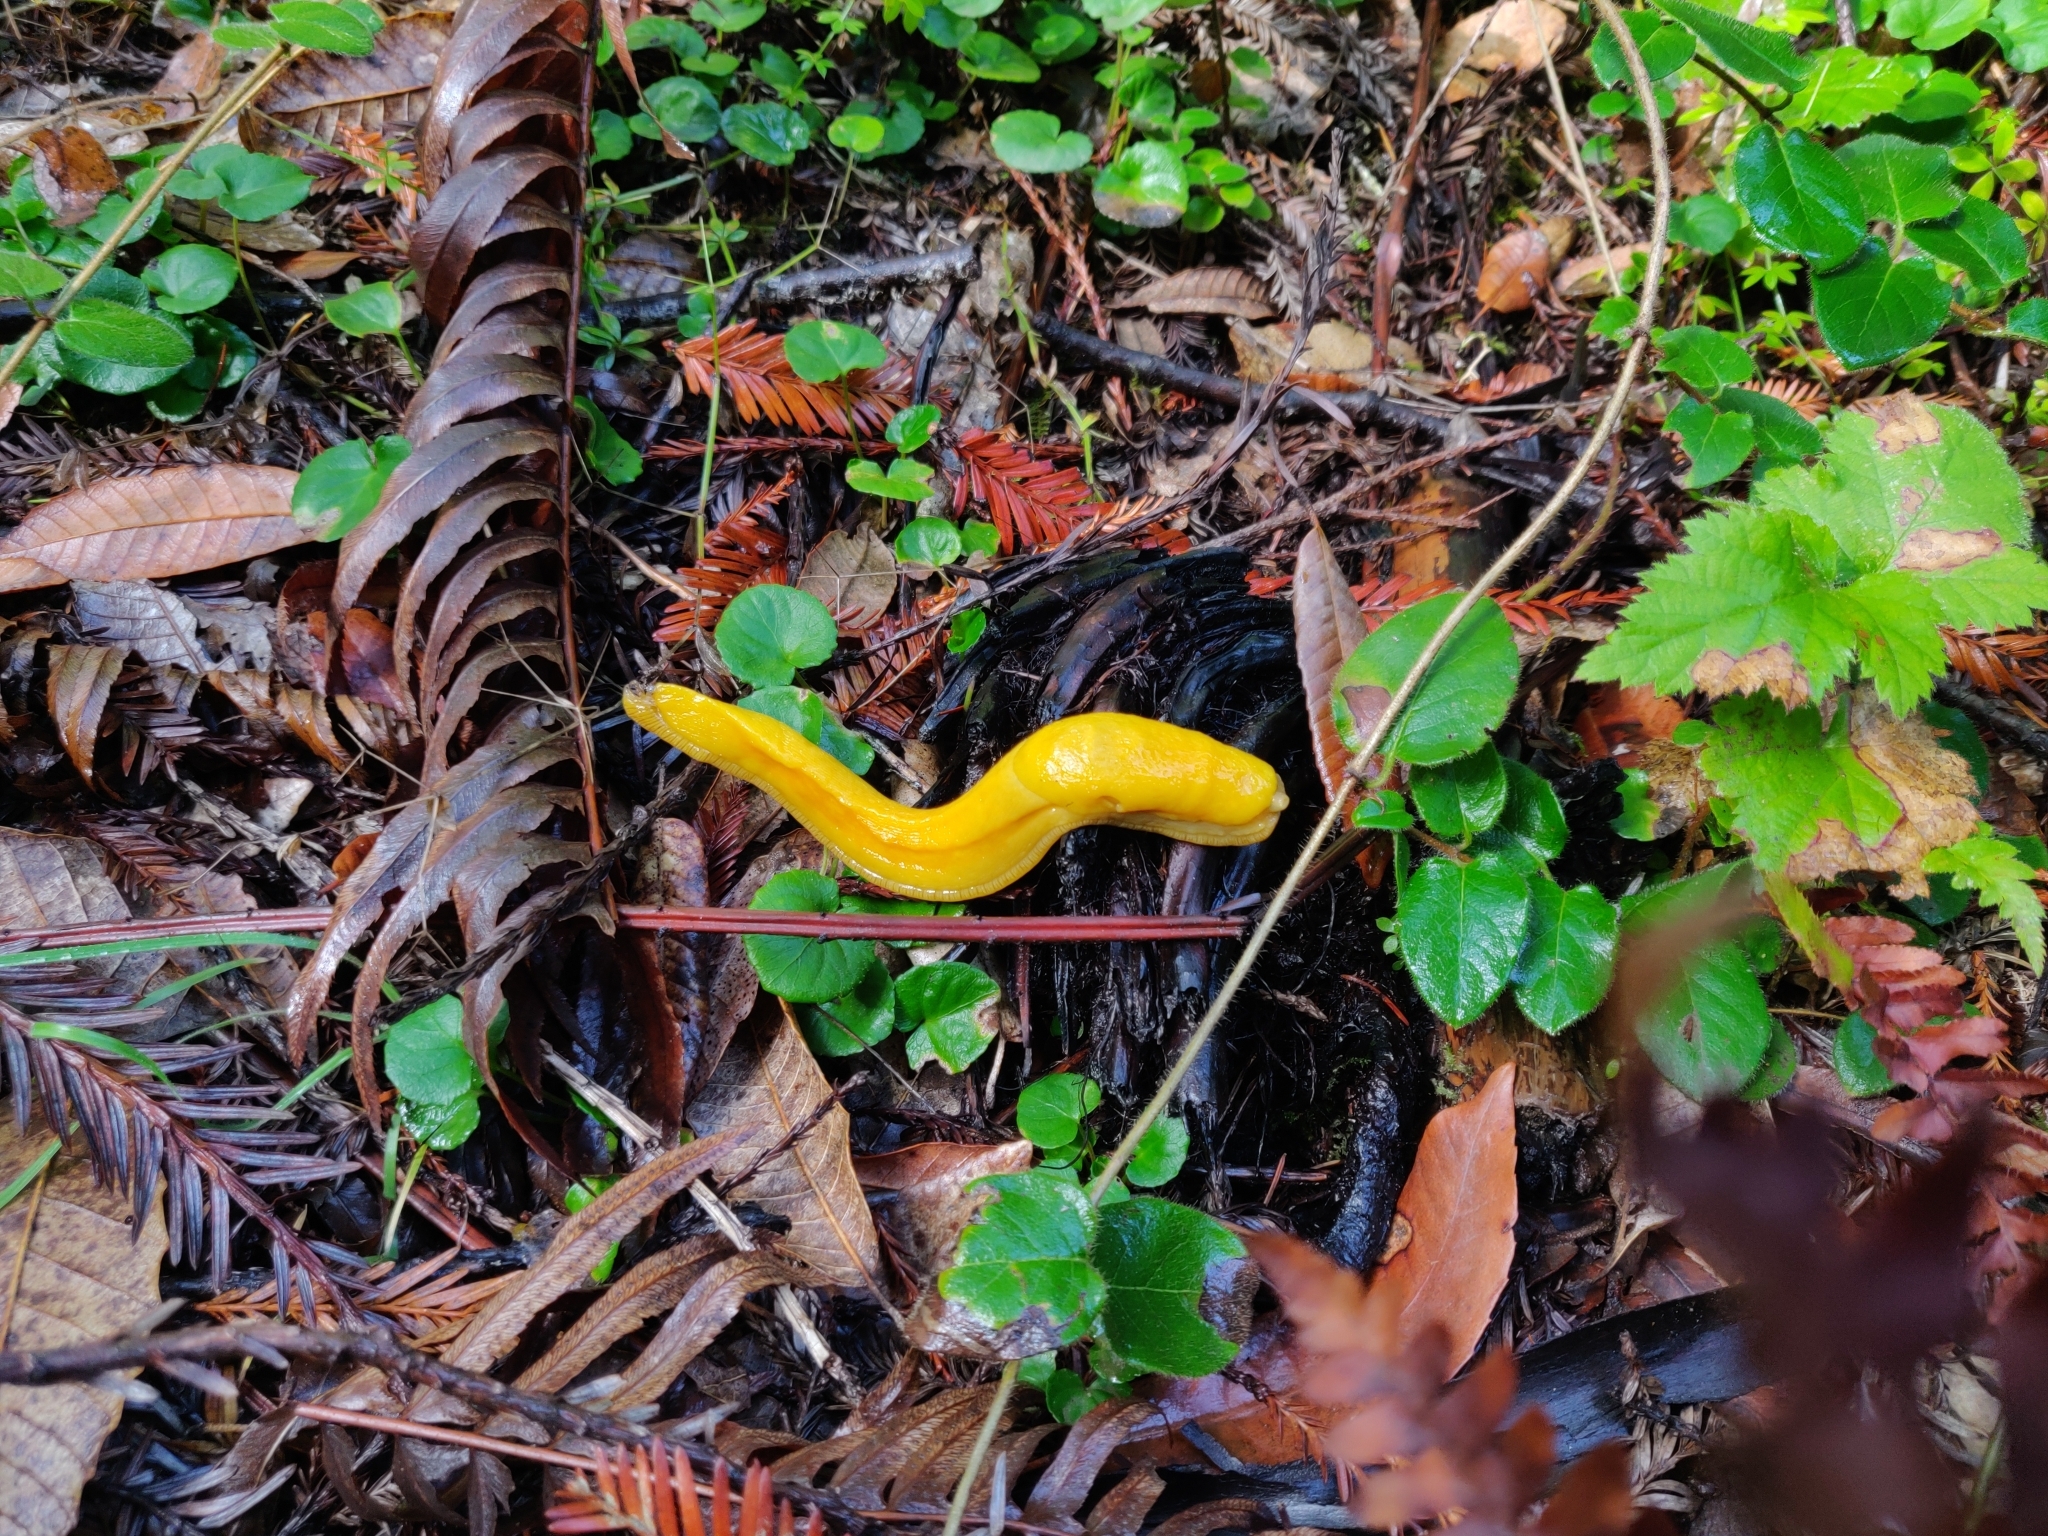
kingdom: Animalia
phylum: Mollusca
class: Gastropoda
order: Stylommatophora
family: Ariolimacidae
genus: Ariolimax
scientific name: Ariolimax californicus
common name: California banana slug
